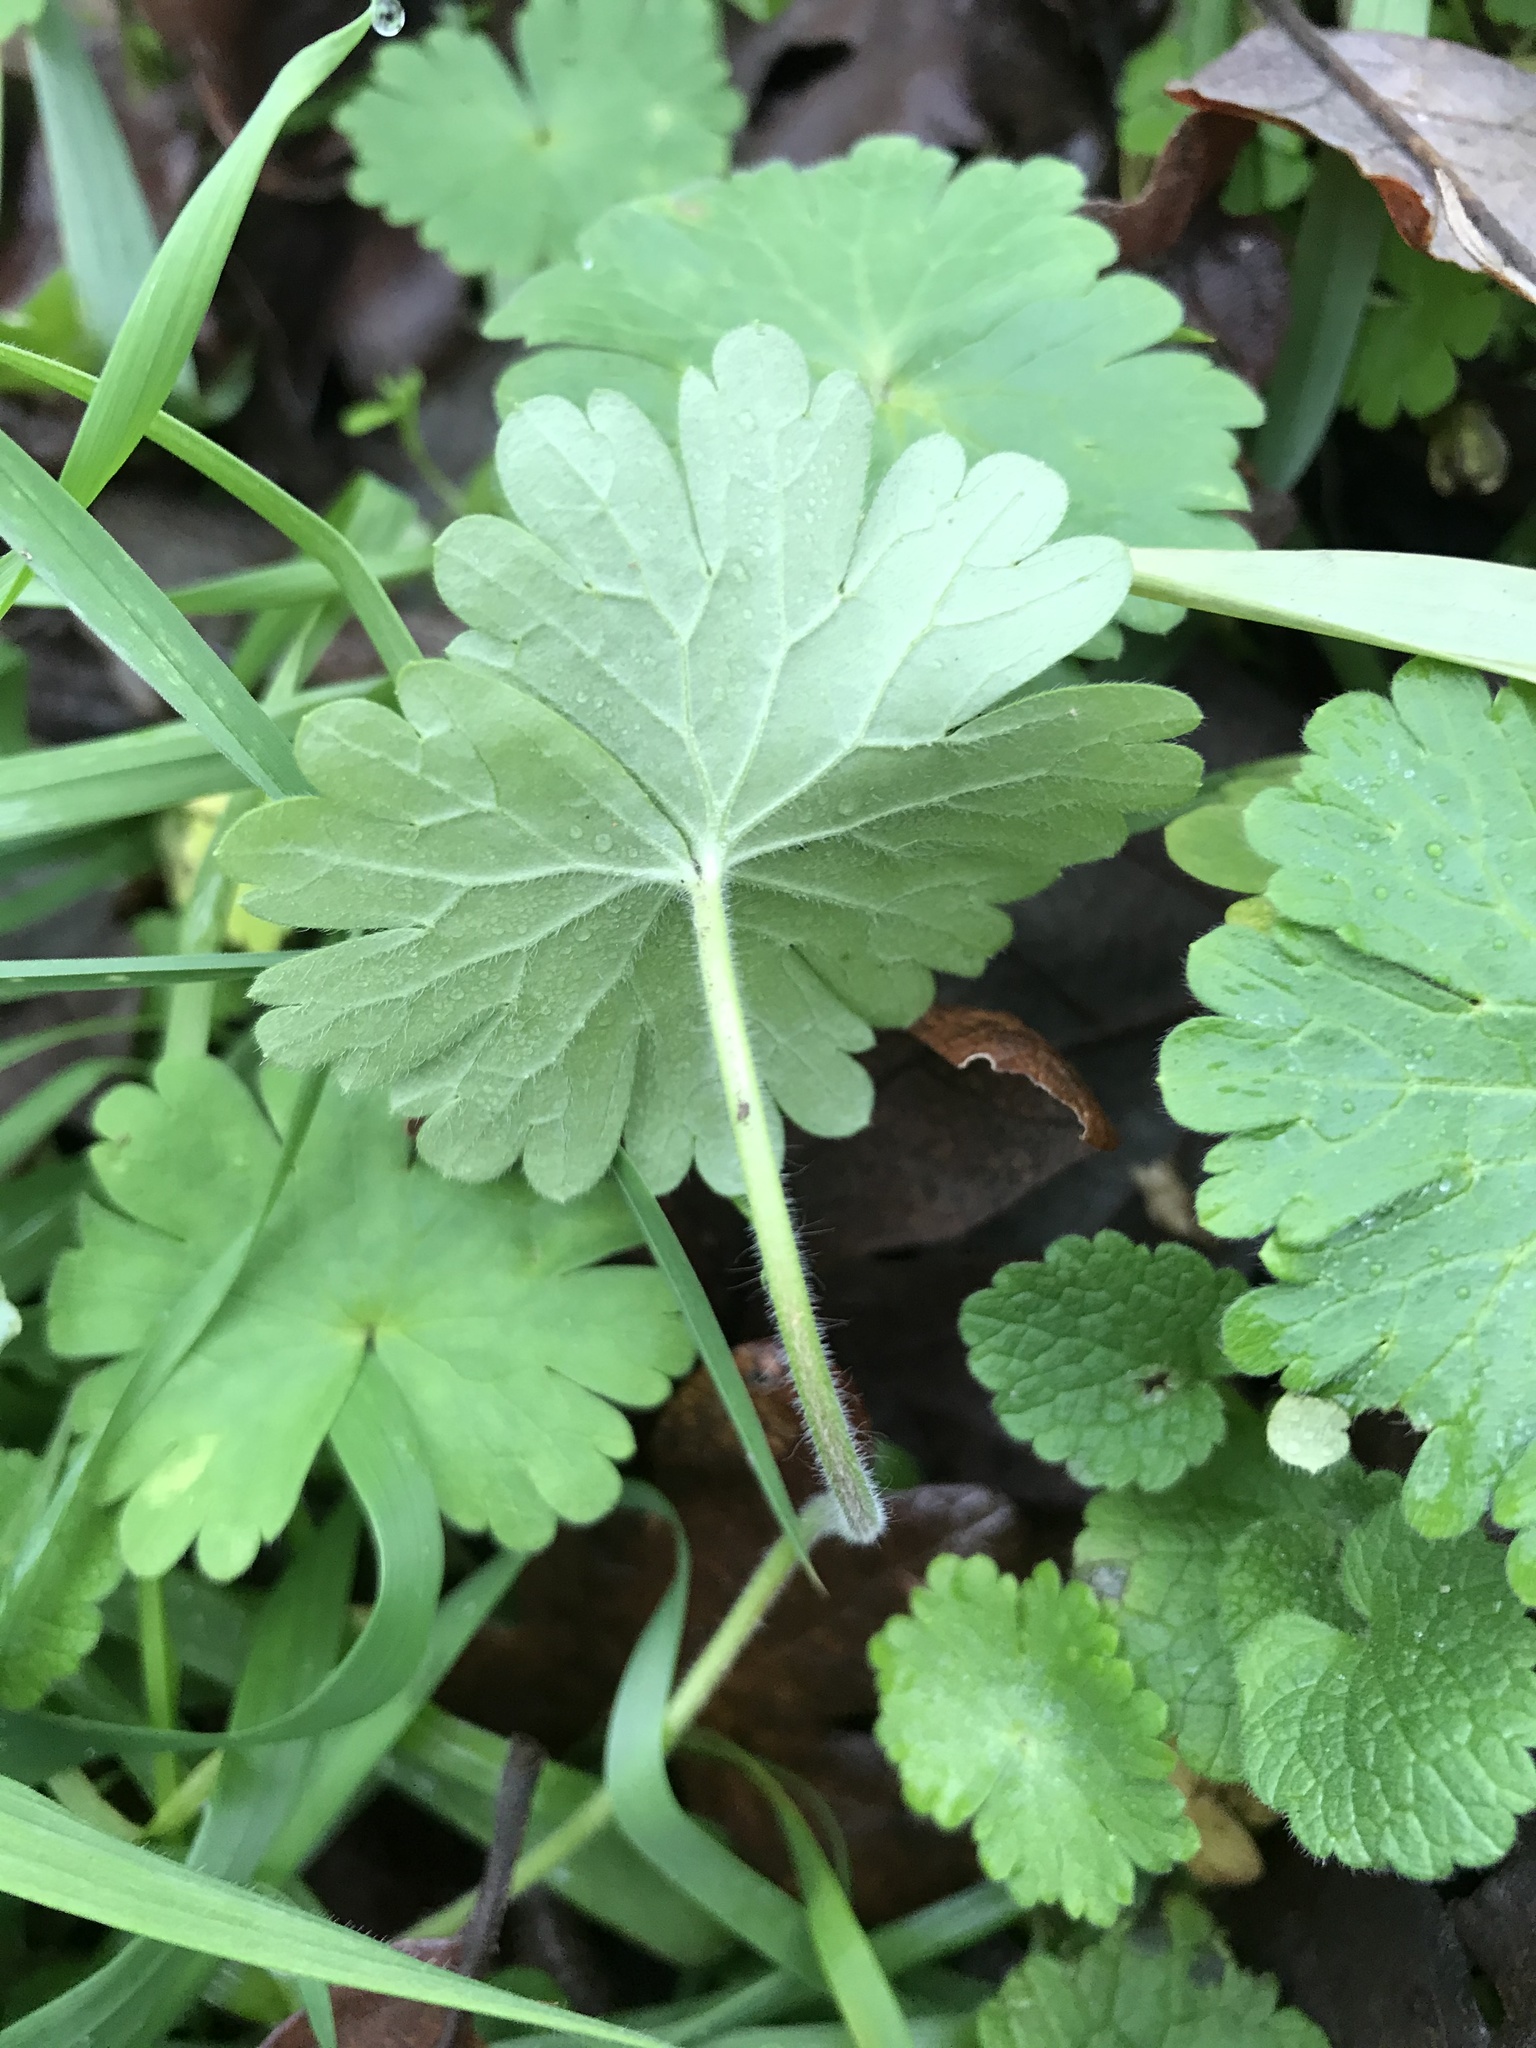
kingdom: Plantae
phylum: Tracheophyta
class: Magnoliopsida
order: Geraniales
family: Geraniaceae
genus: Geranium
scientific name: Geranium molle
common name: Dove's-foot crane's-bill
